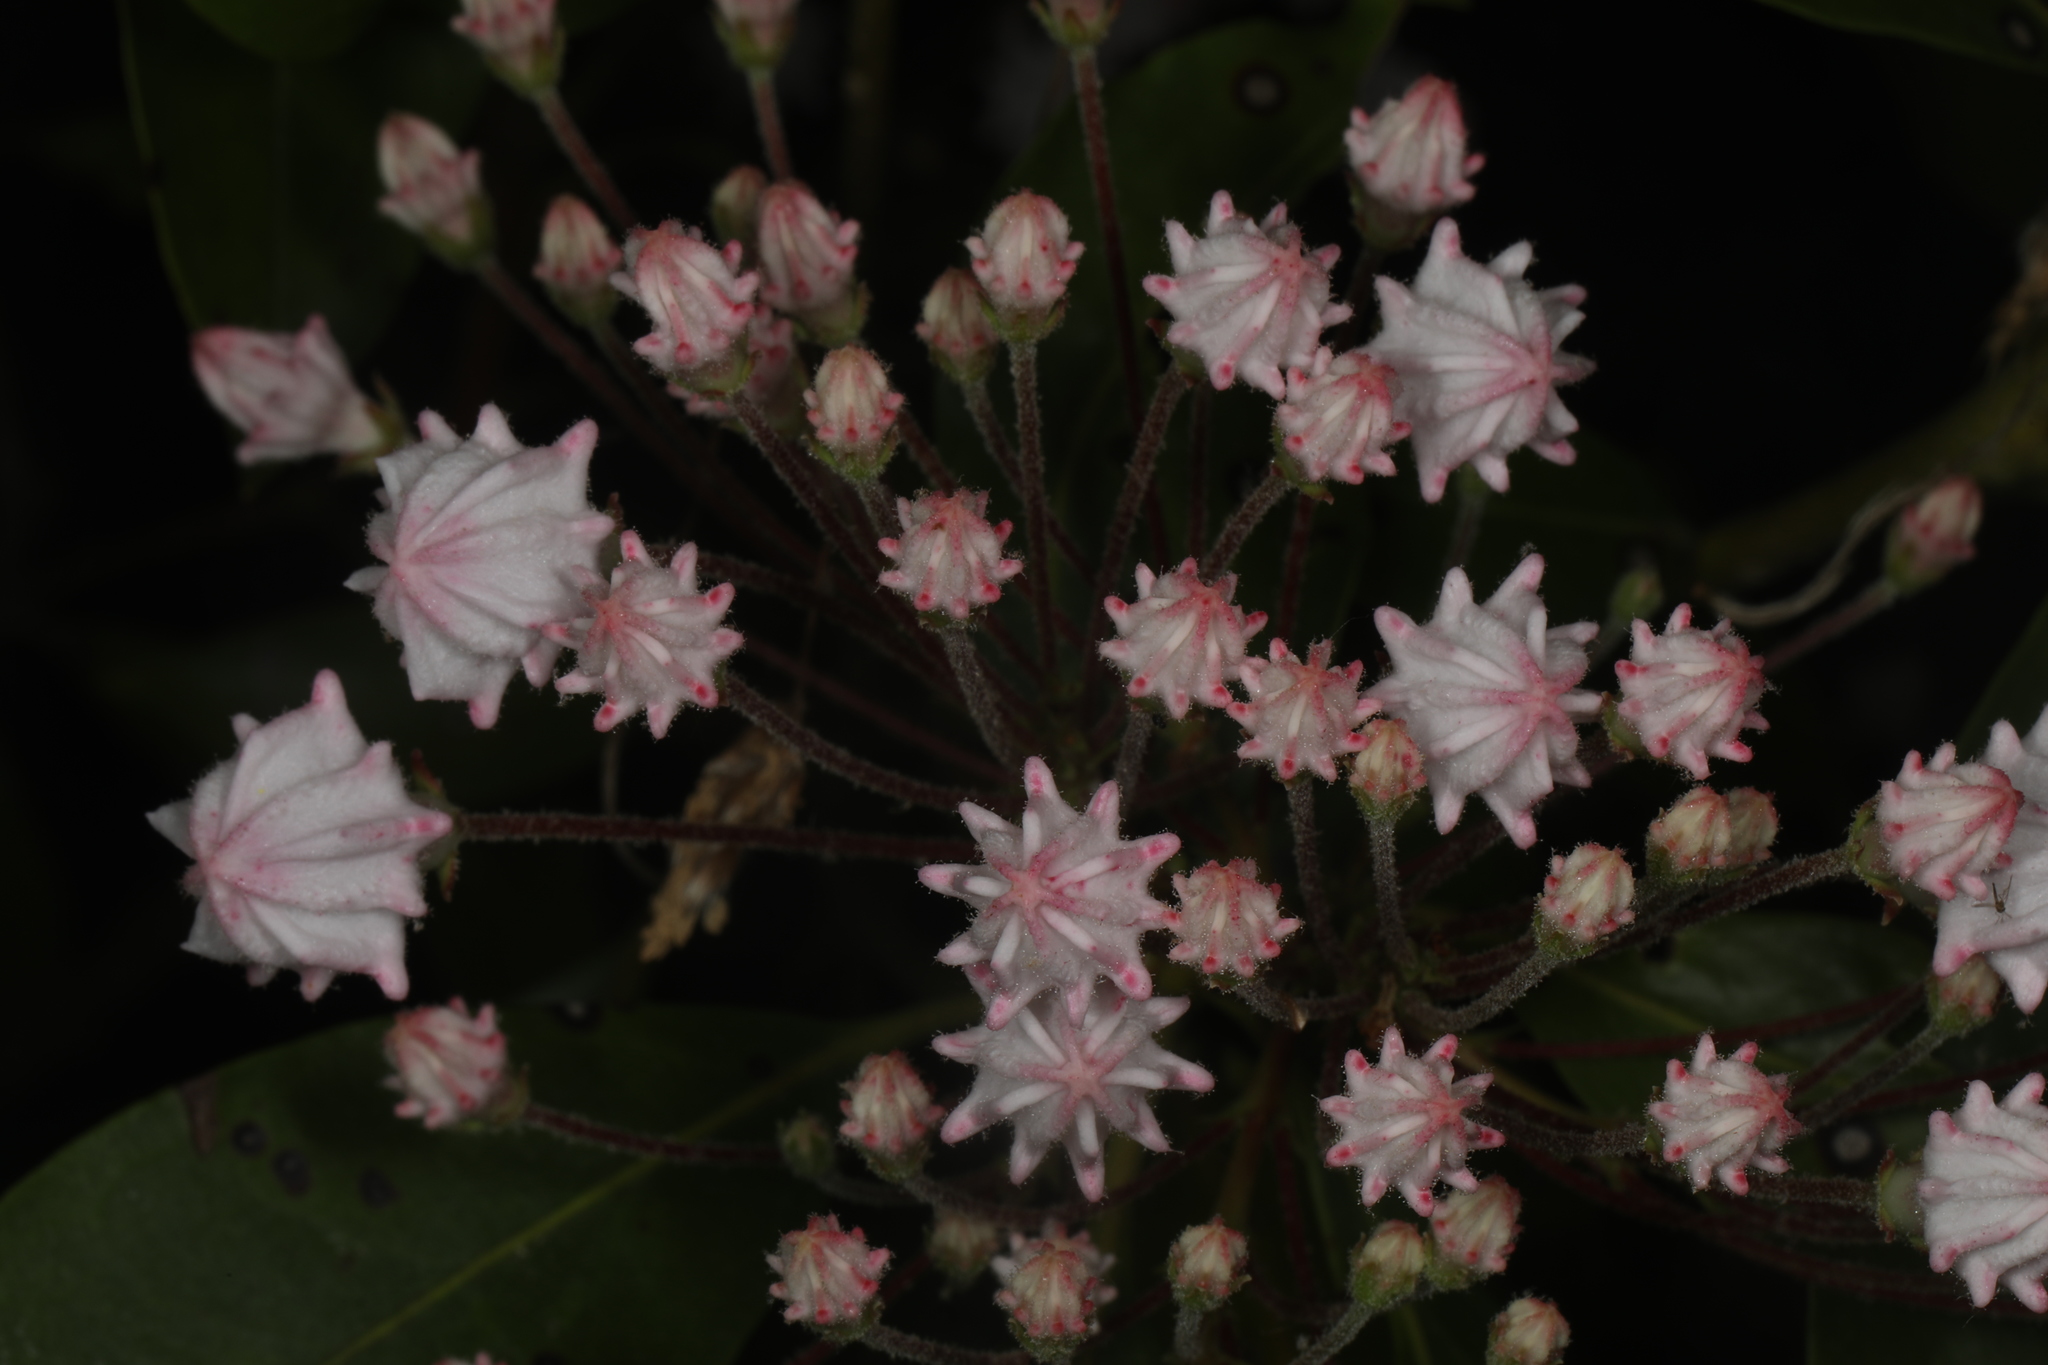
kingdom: Plantae
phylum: Tracheophyta
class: Magnoliopsida
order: Ericales
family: Ericaceae
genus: Kalmia
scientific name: Kalmia latifolia
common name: Mountain-laurel
